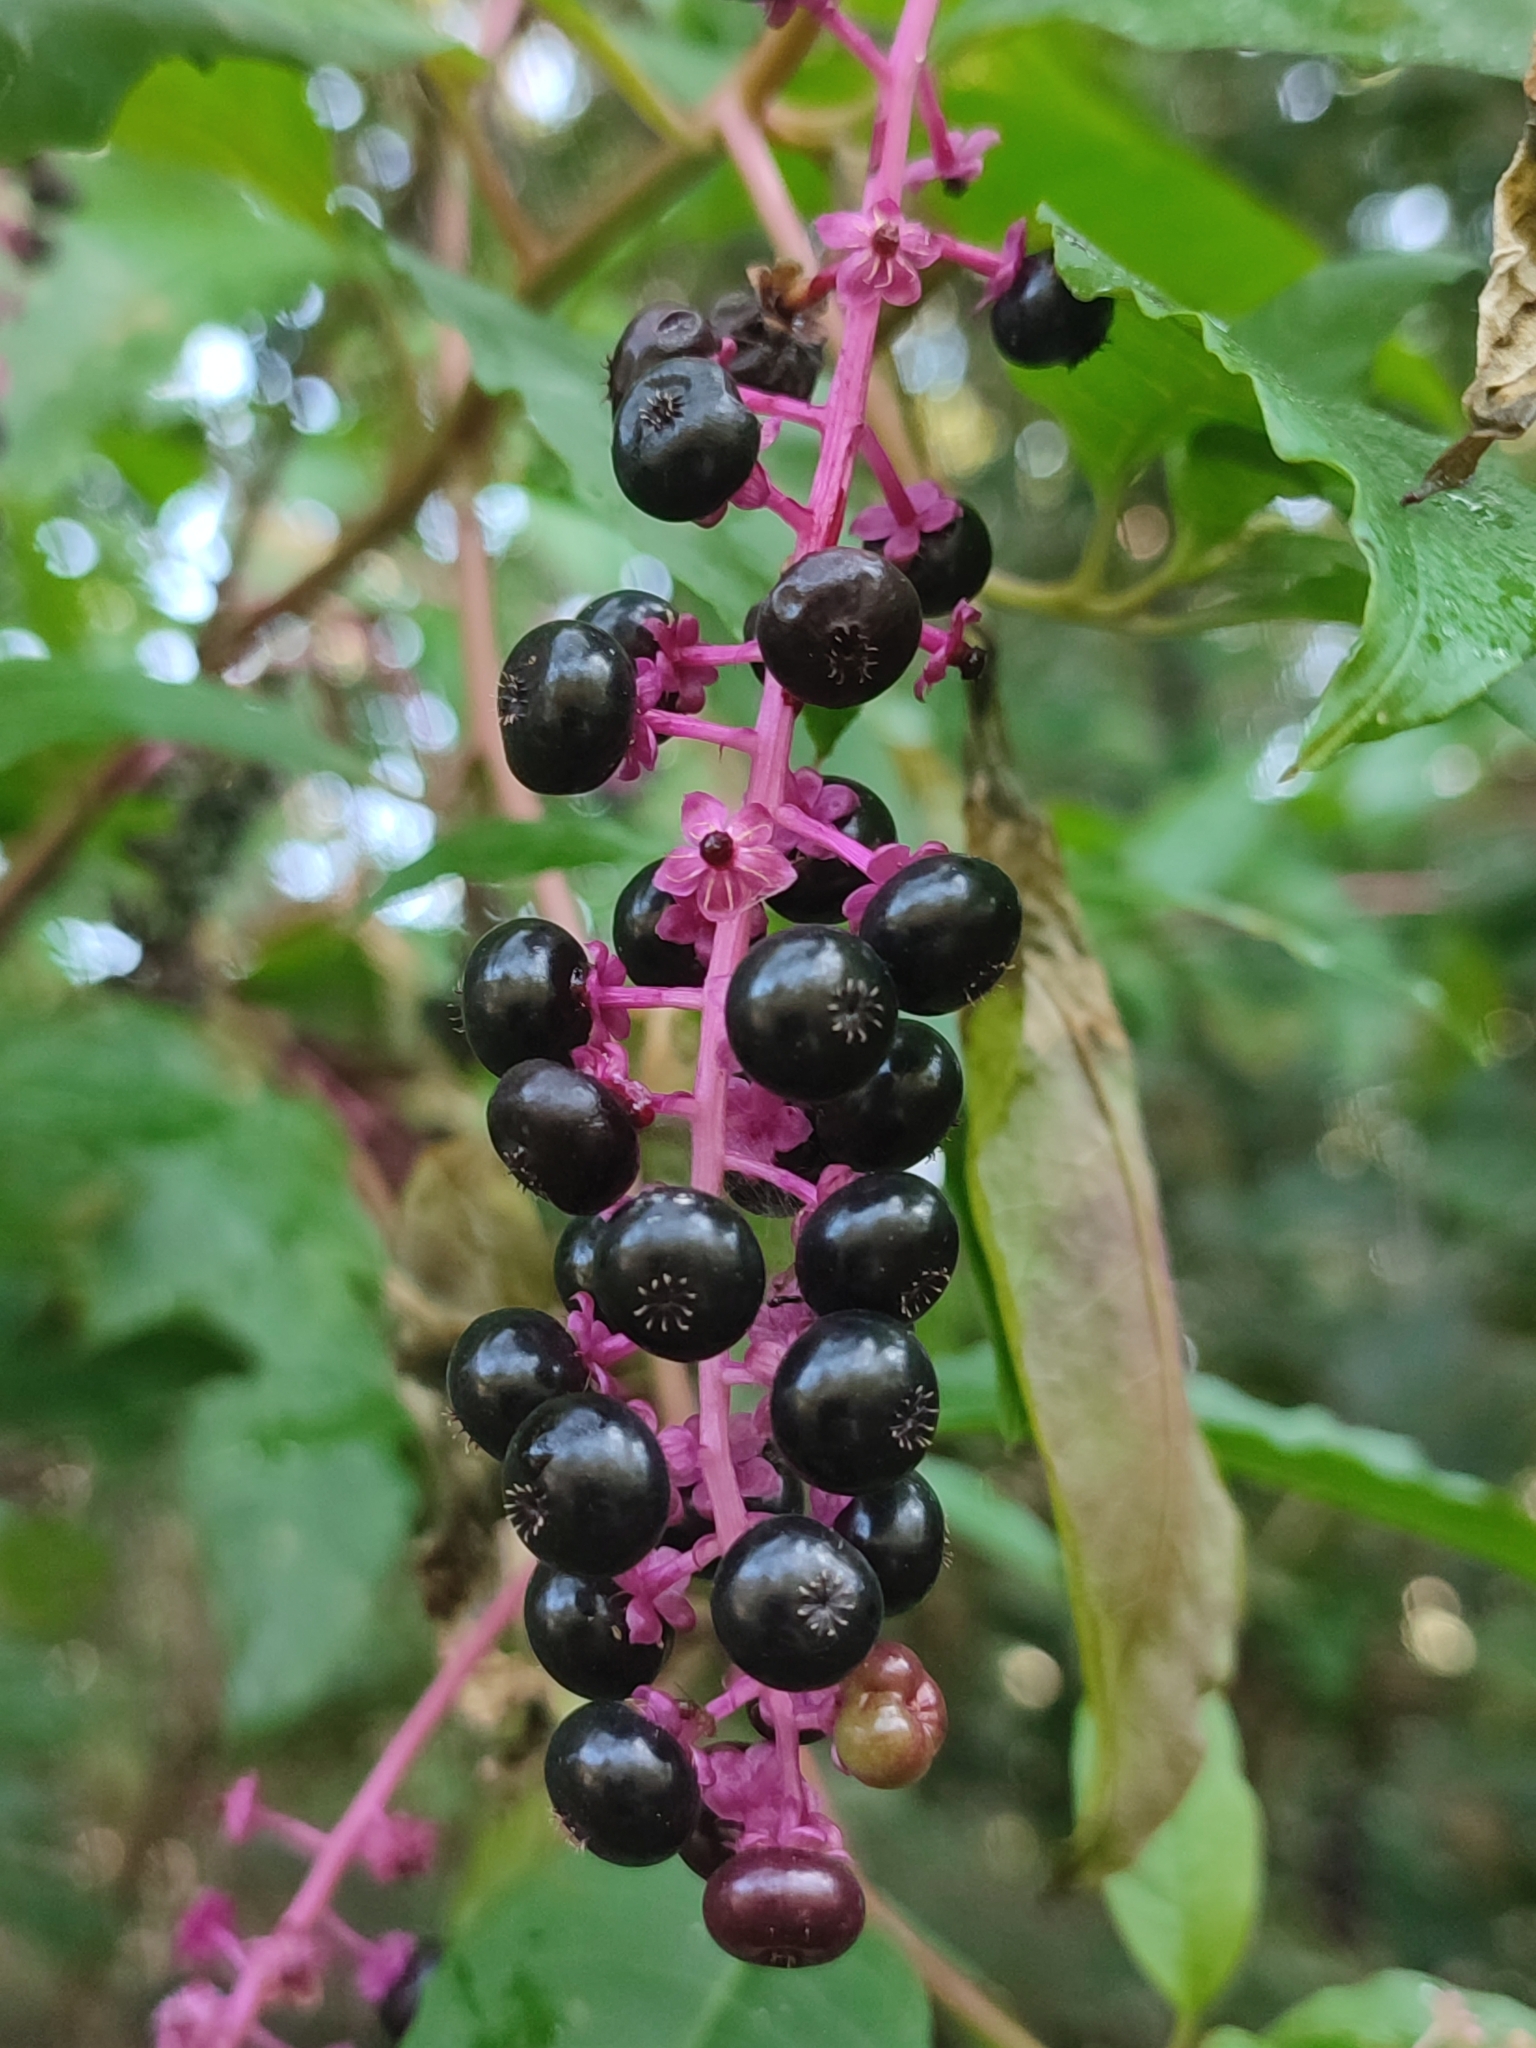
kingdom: Plantae
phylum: Tracheophyta
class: Magnoliopsida
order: Caryophyllales
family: Phytolaccaceae
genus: Phytolacca
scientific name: Phytolacca americana
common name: American pokeweed
